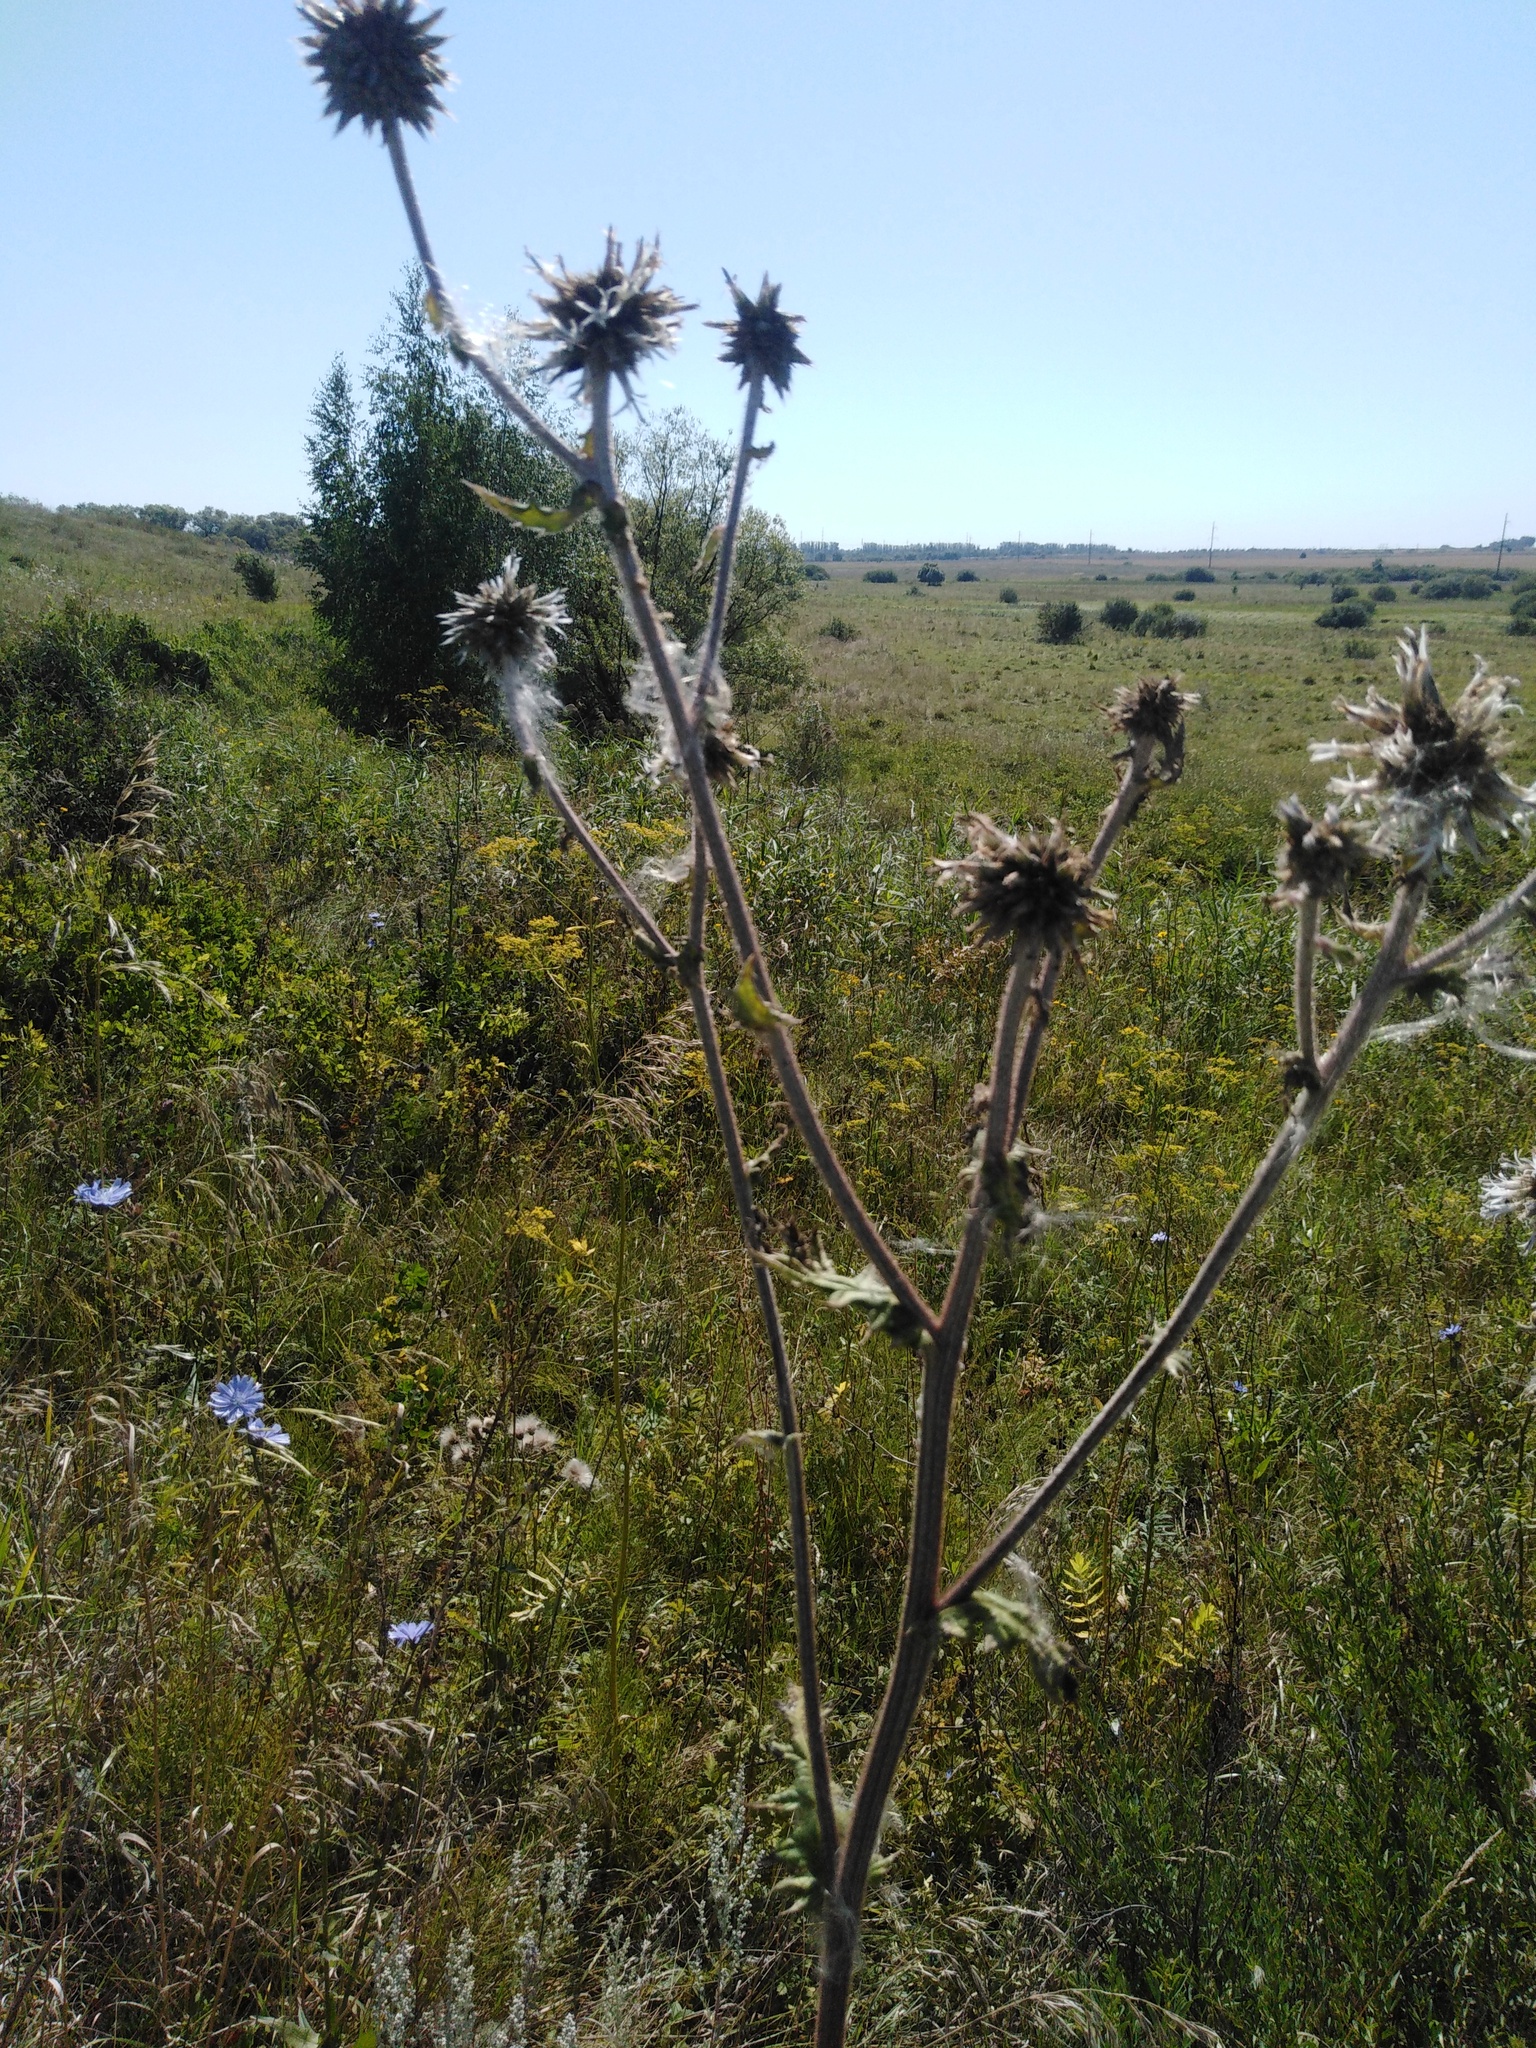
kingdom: Plantae
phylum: Tracheophyta
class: Magnoliopsida
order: Asterales
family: Asteraceae
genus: Echinops
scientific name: Echinops sphaerocephalus
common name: Glandular globe-thistle
